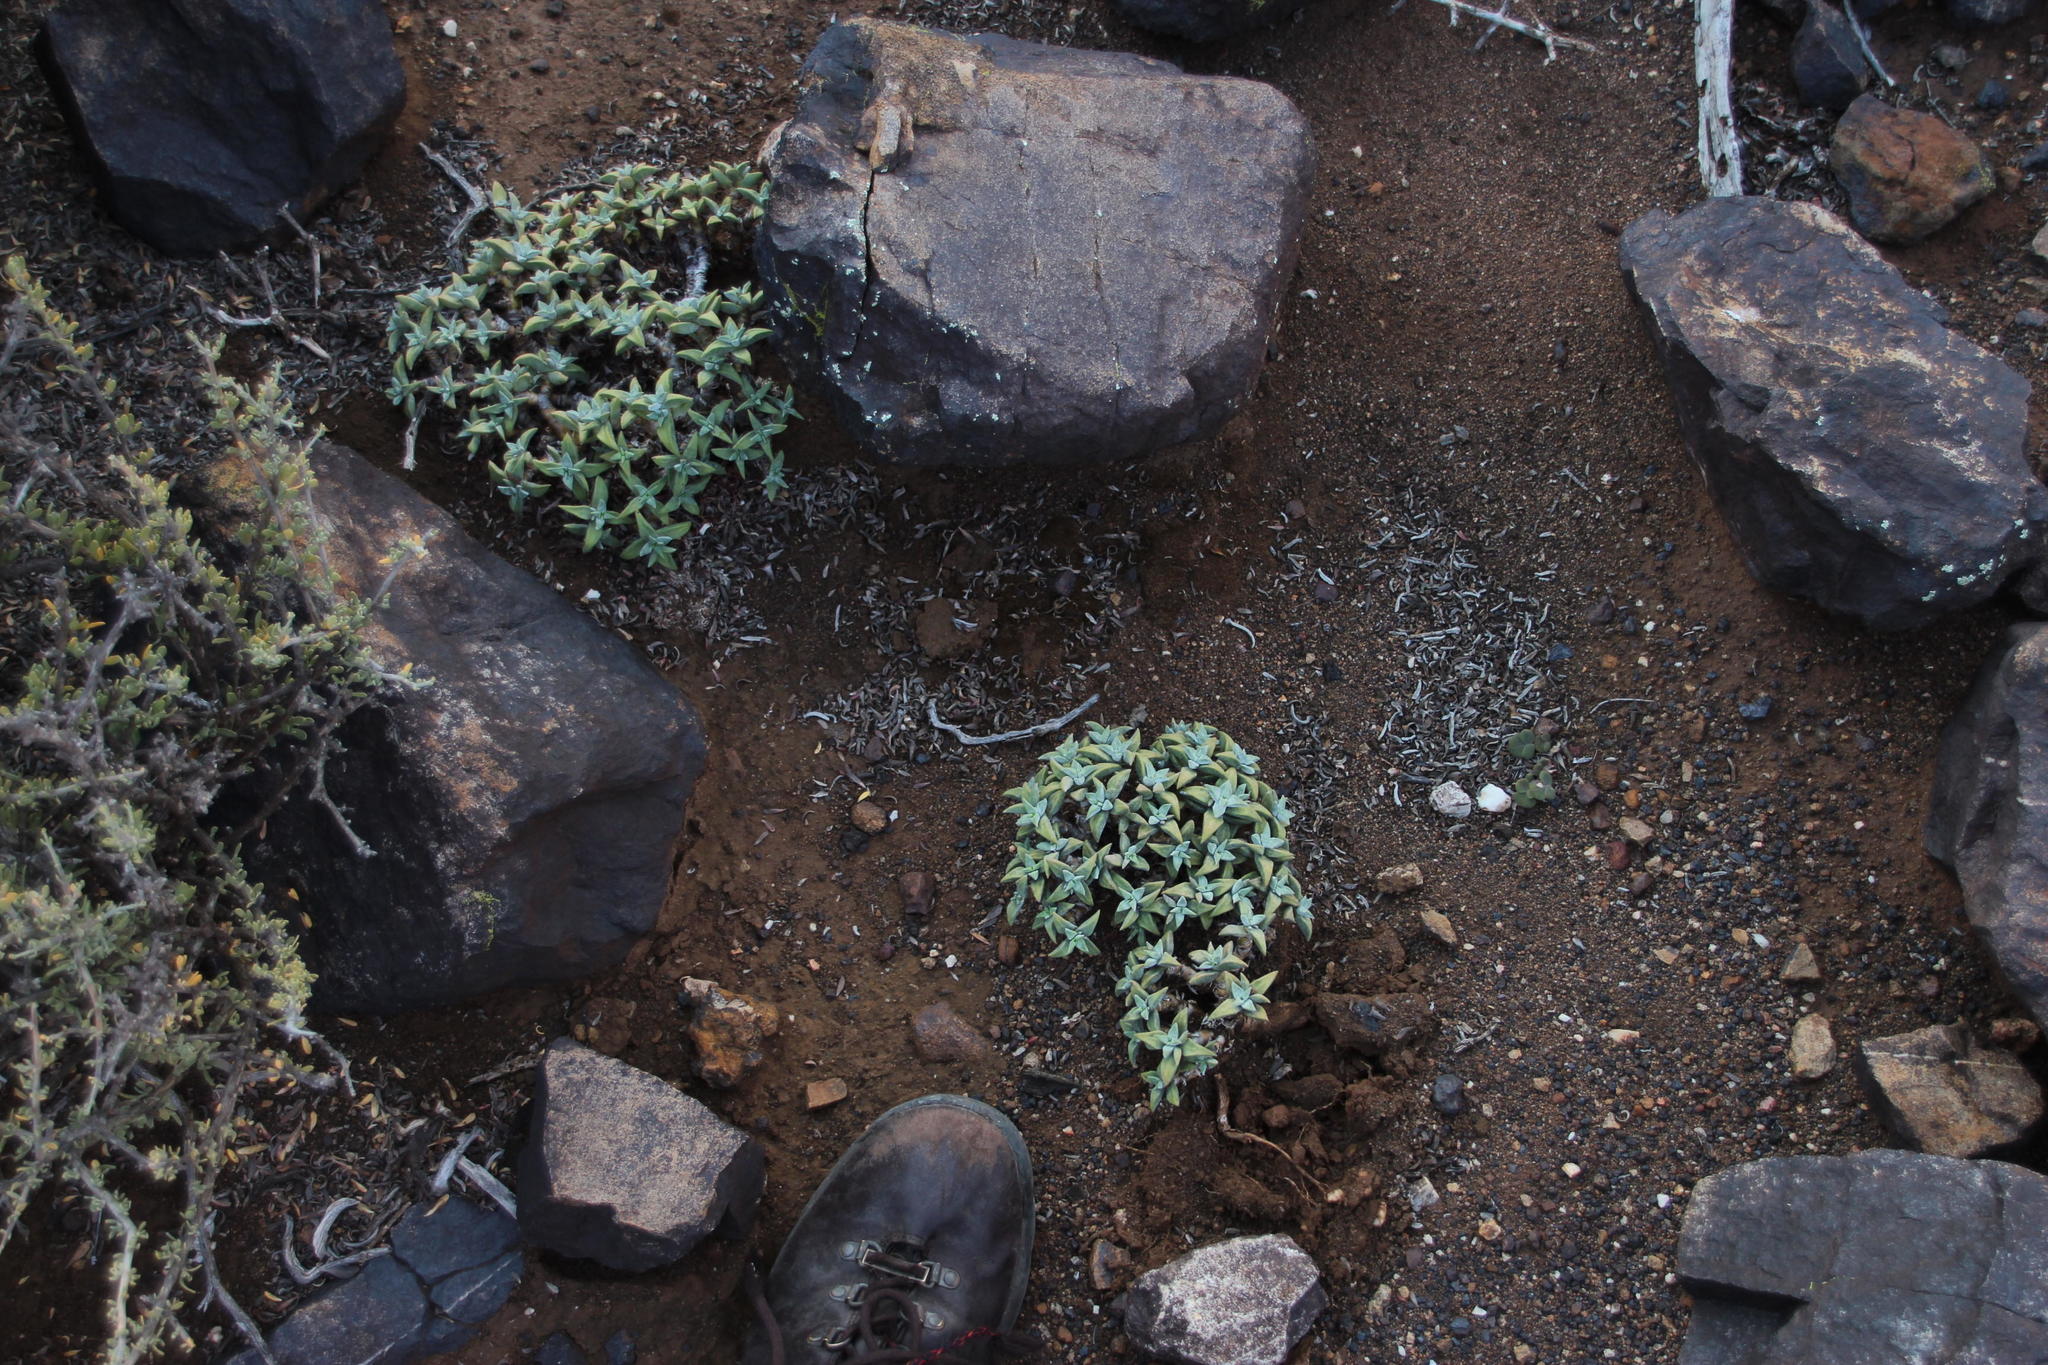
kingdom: Plantae
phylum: Tracheophyta
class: Magnoliopsida
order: Saxifragales
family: Crassulaceae
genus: Crassula
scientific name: Crassula deltoidea
